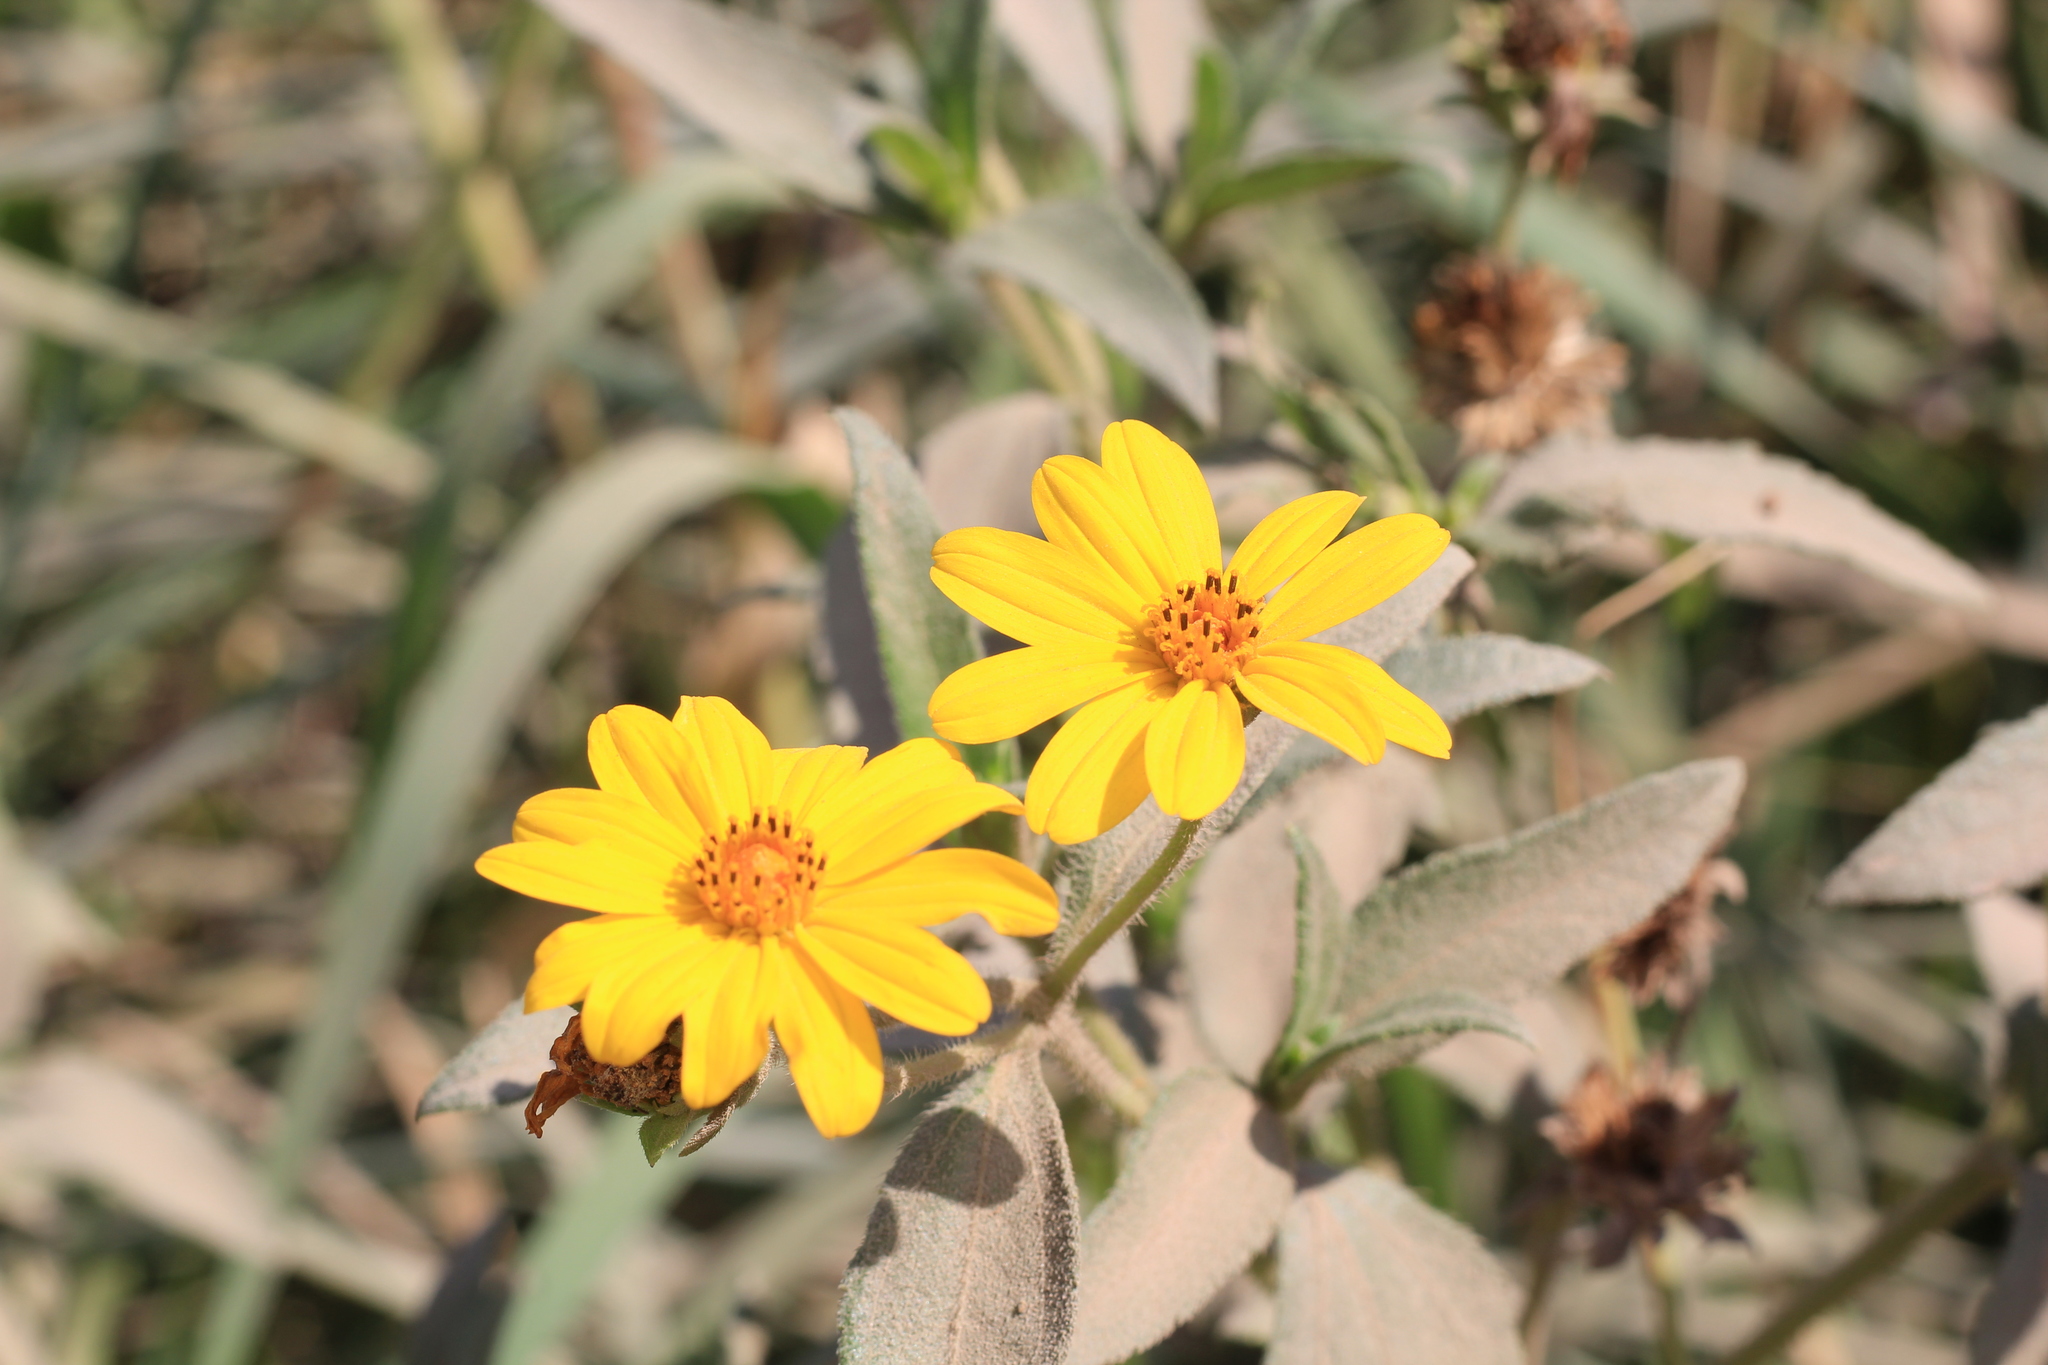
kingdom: Plantae
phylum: Tracheophyta
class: Magnoliopsida
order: Asterales
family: Asteraceae
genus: Wedelia
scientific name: Wedelia silphioides
